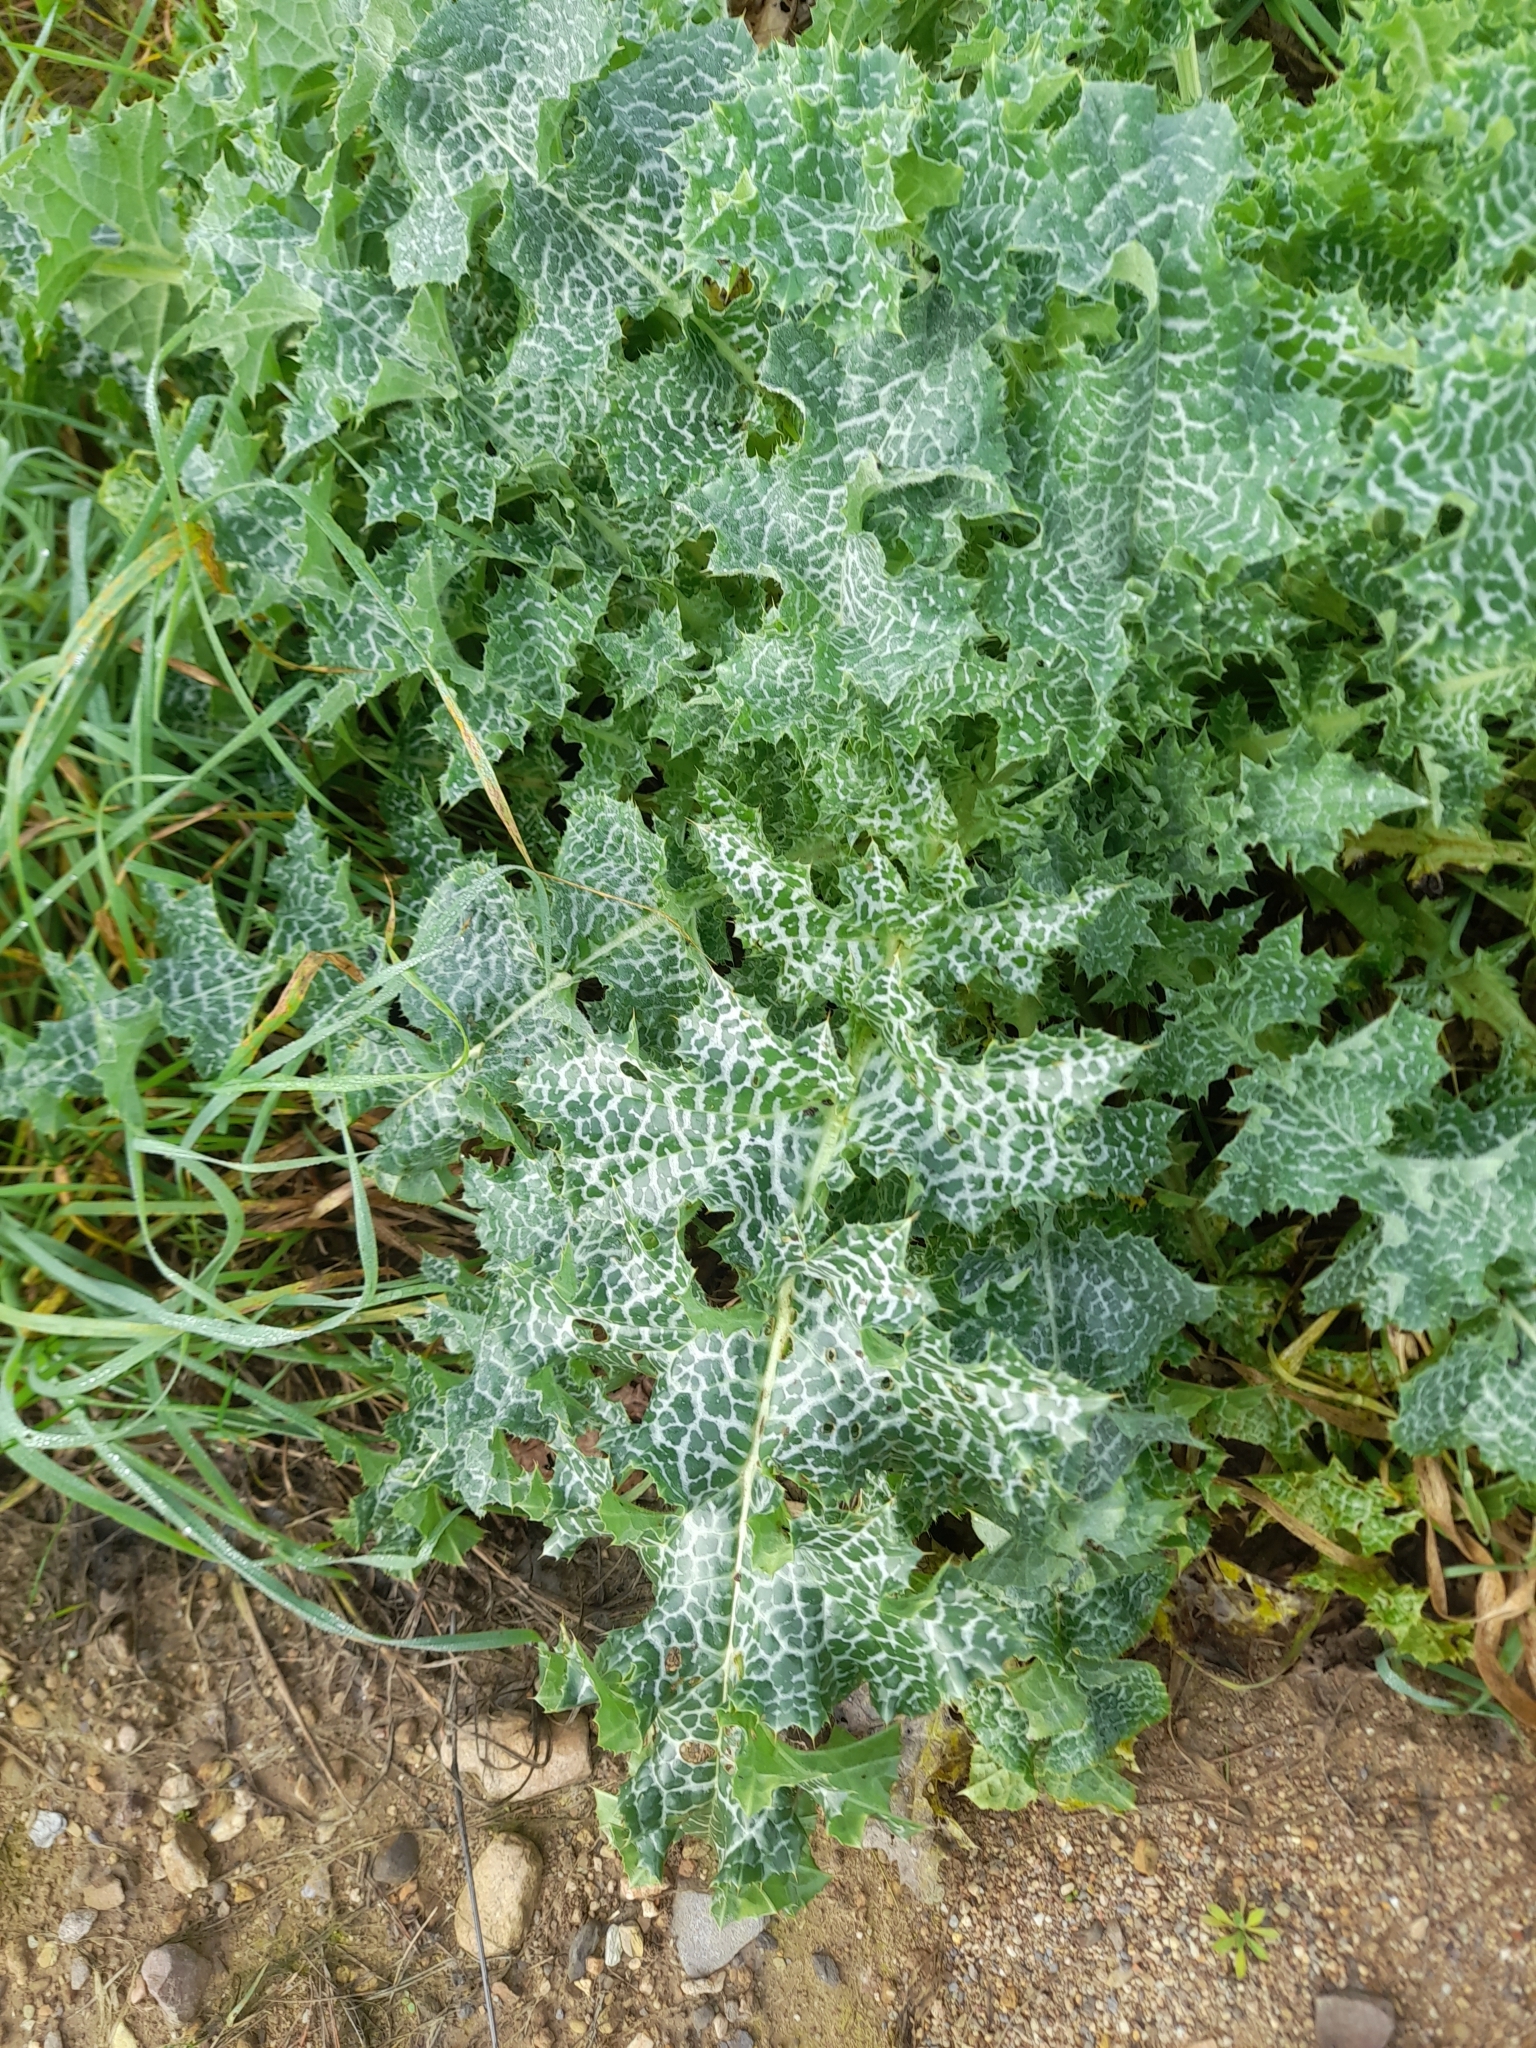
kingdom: Plantae
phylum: Tracheophyta
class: Magnoliopsida
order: Asterales
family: Asteraceae
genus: Silybum
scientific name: Silybum marianum
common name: Milk thistle
